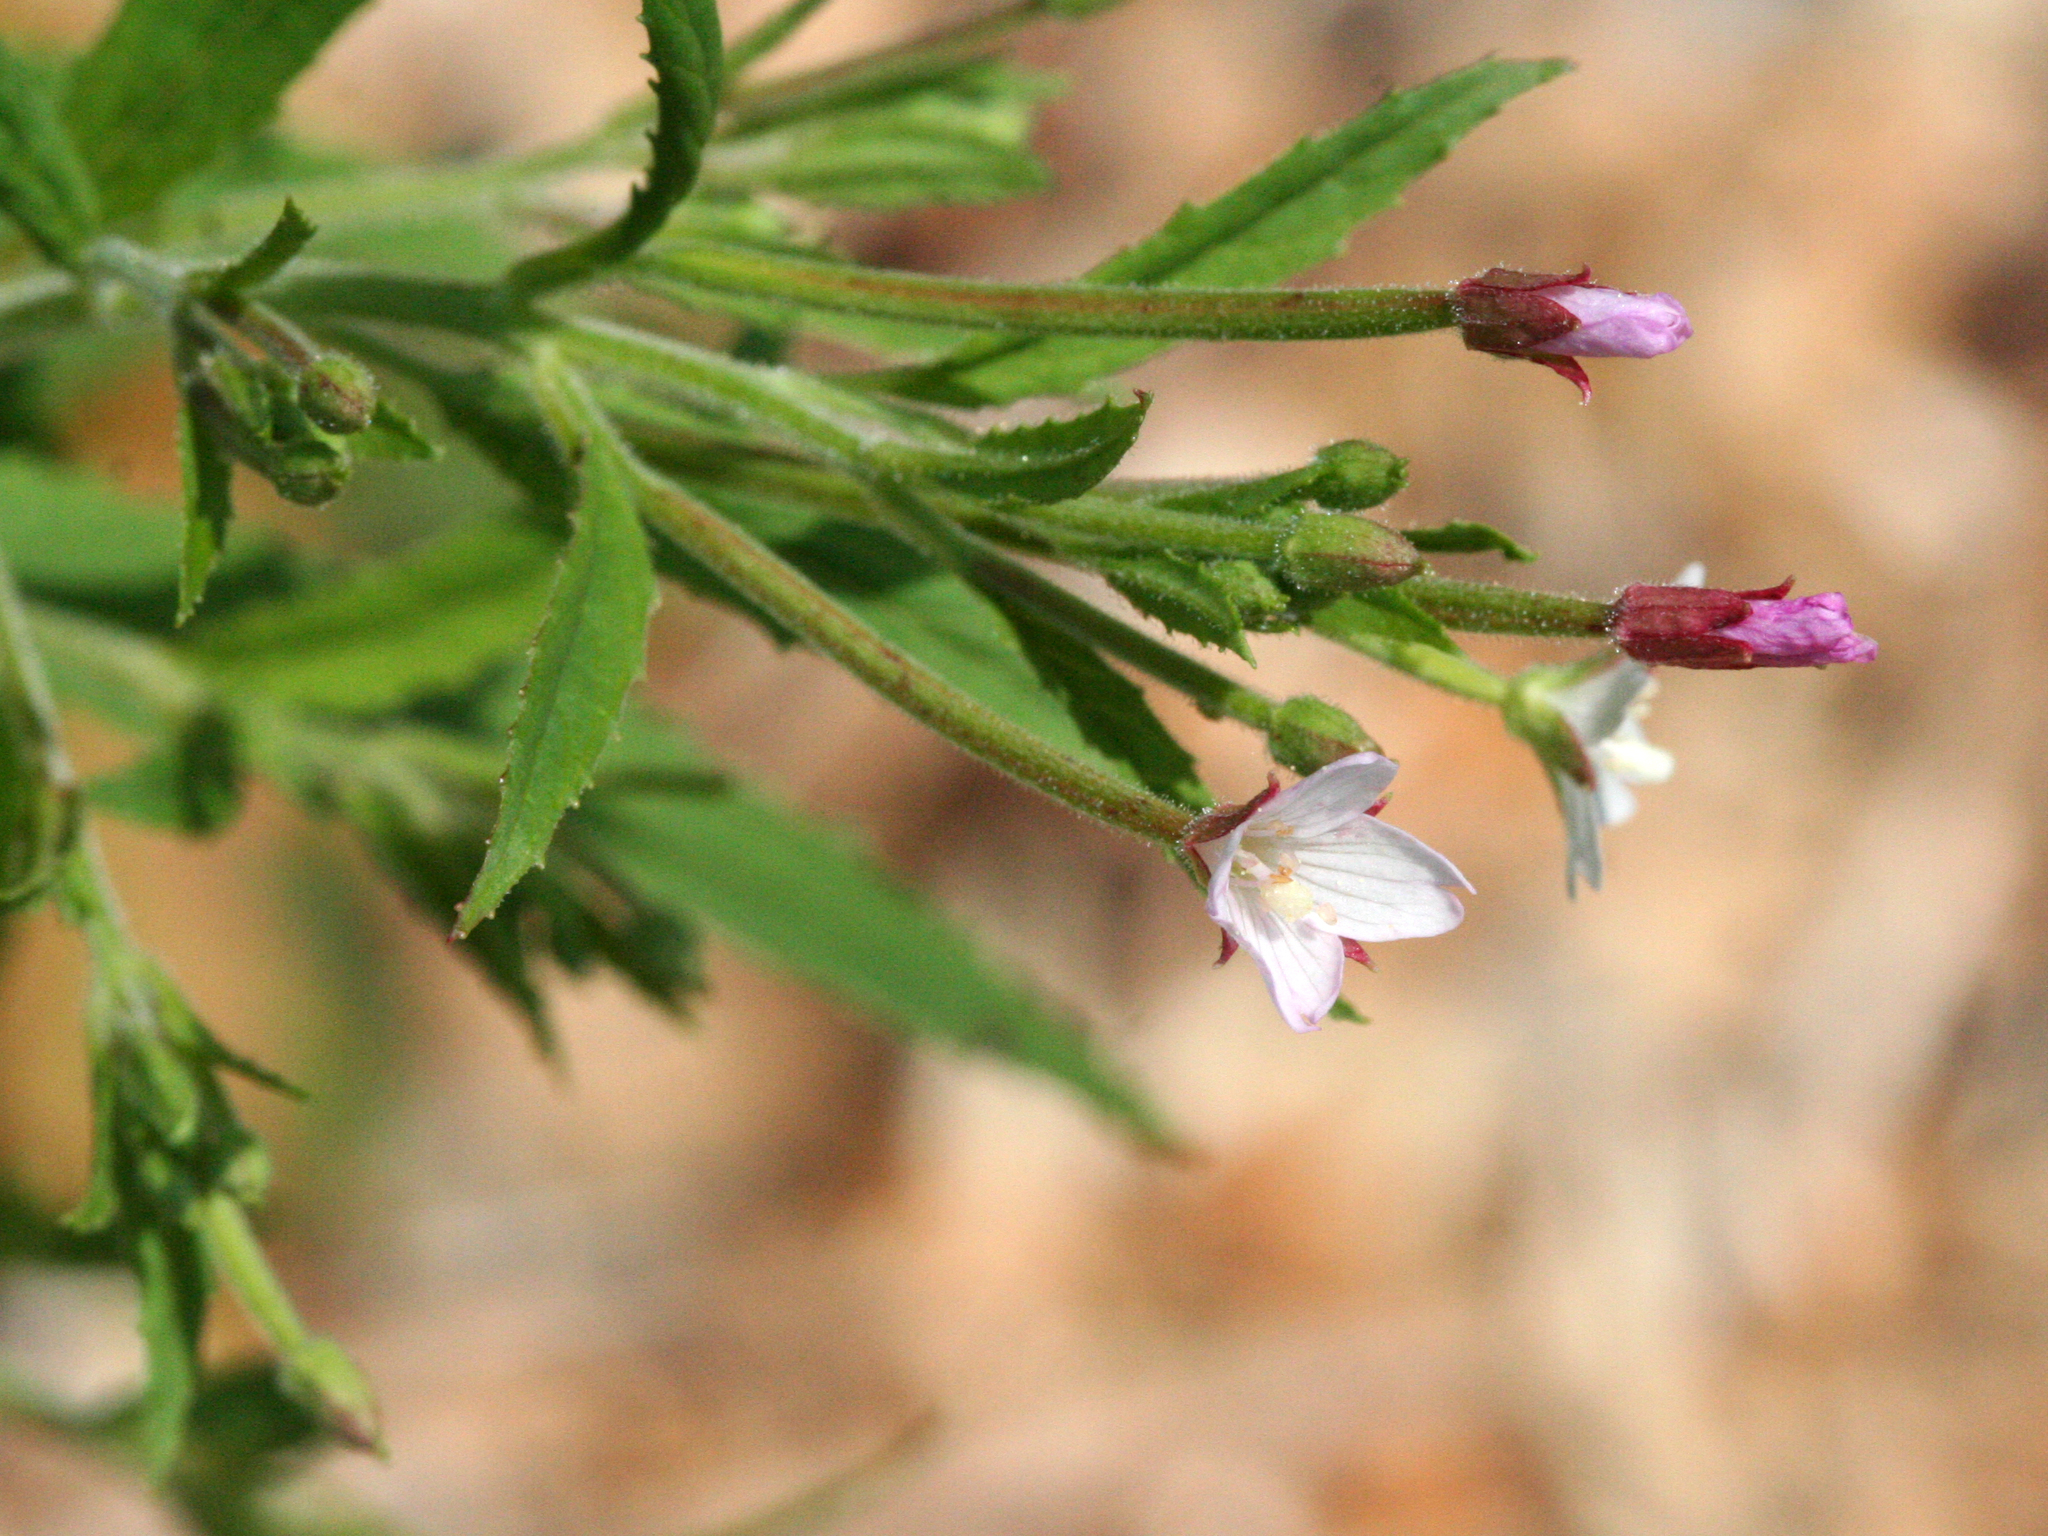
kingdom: Plantae
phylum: Tracheophyta
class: Magnoliopsida
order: Myrtales
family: Onagraceae
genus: Epilobium
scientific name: Epilobium coloratum
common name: Bronze willowherb
